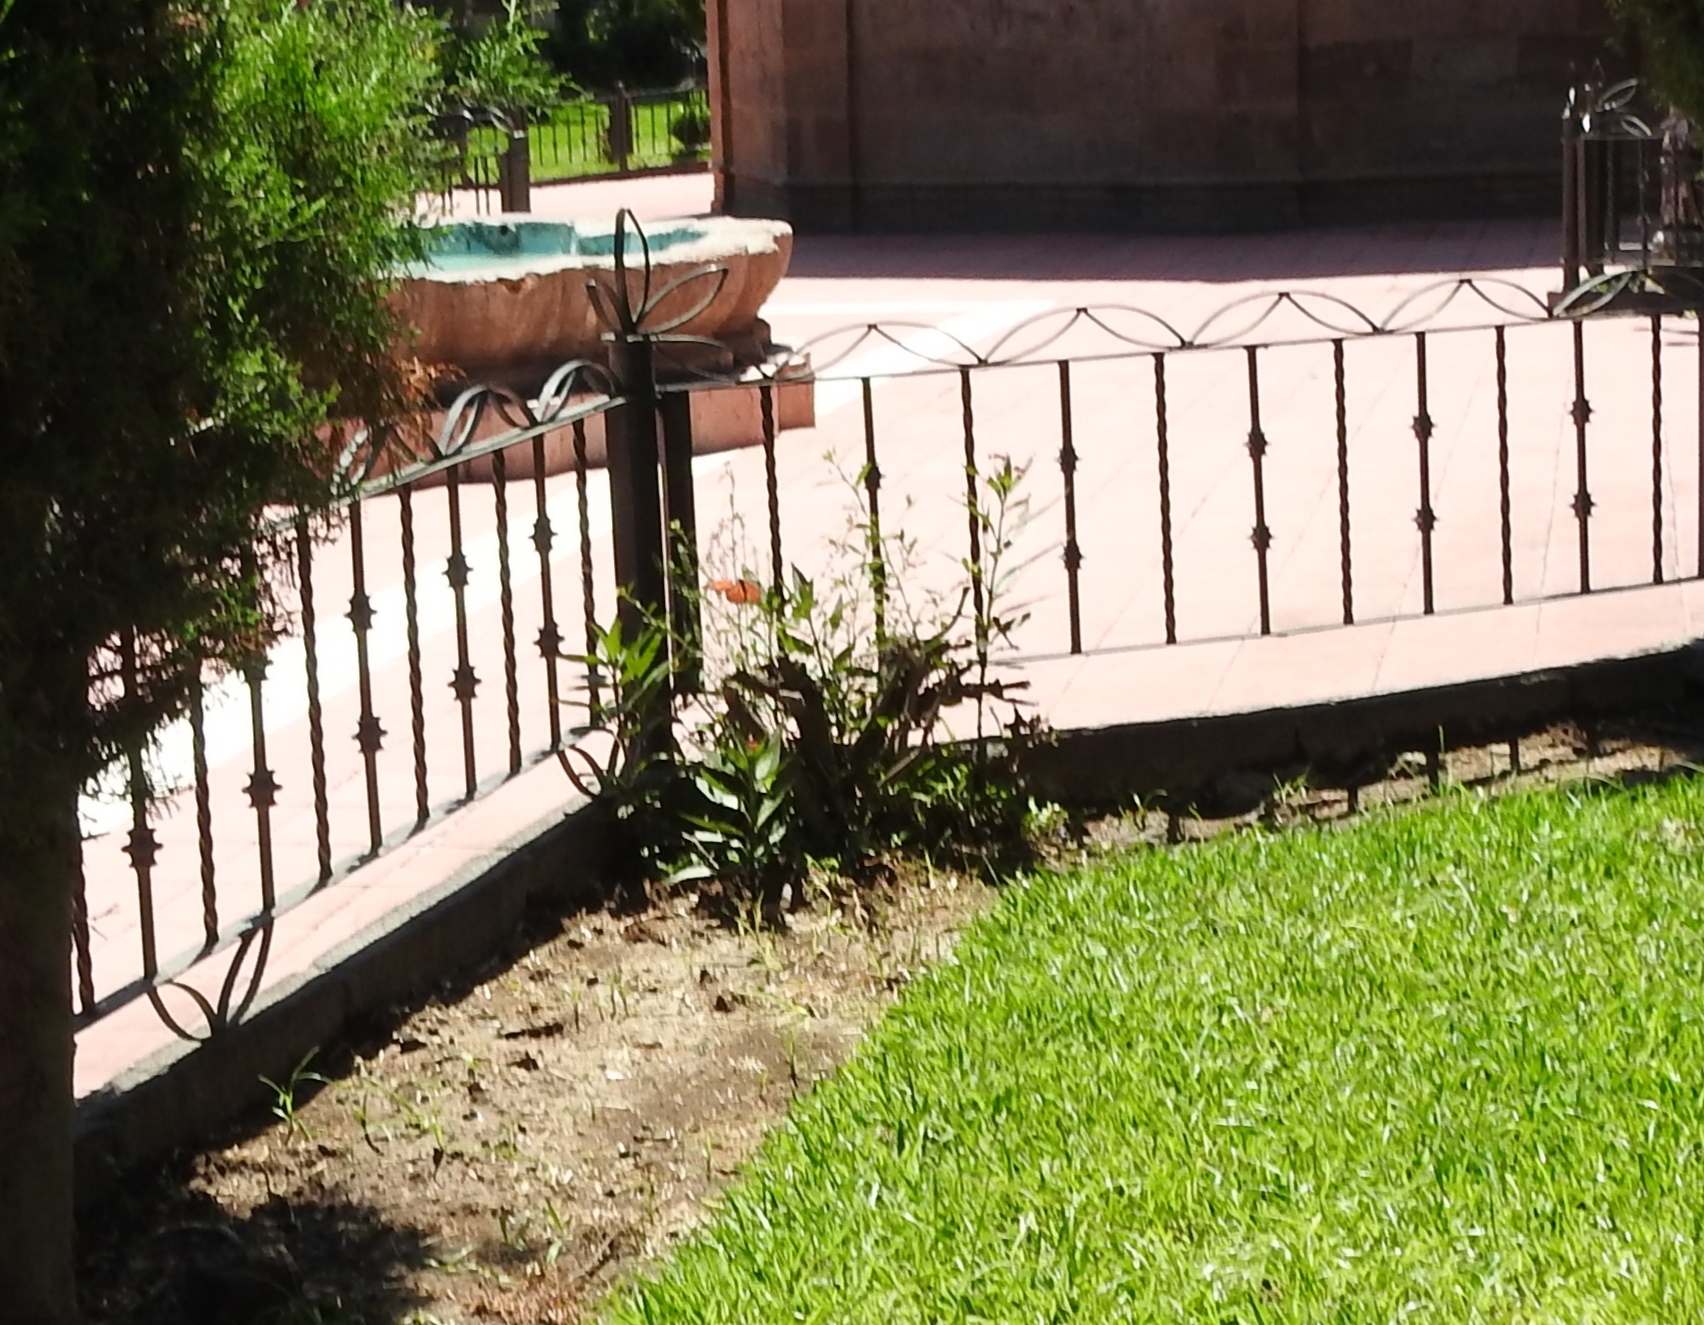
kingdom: Animalia
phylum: Arthropoda
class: Insecta
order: Lepidoptera
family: Nymphalidae
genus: Danaus
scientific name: Danaus plexippus
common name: Monarch
